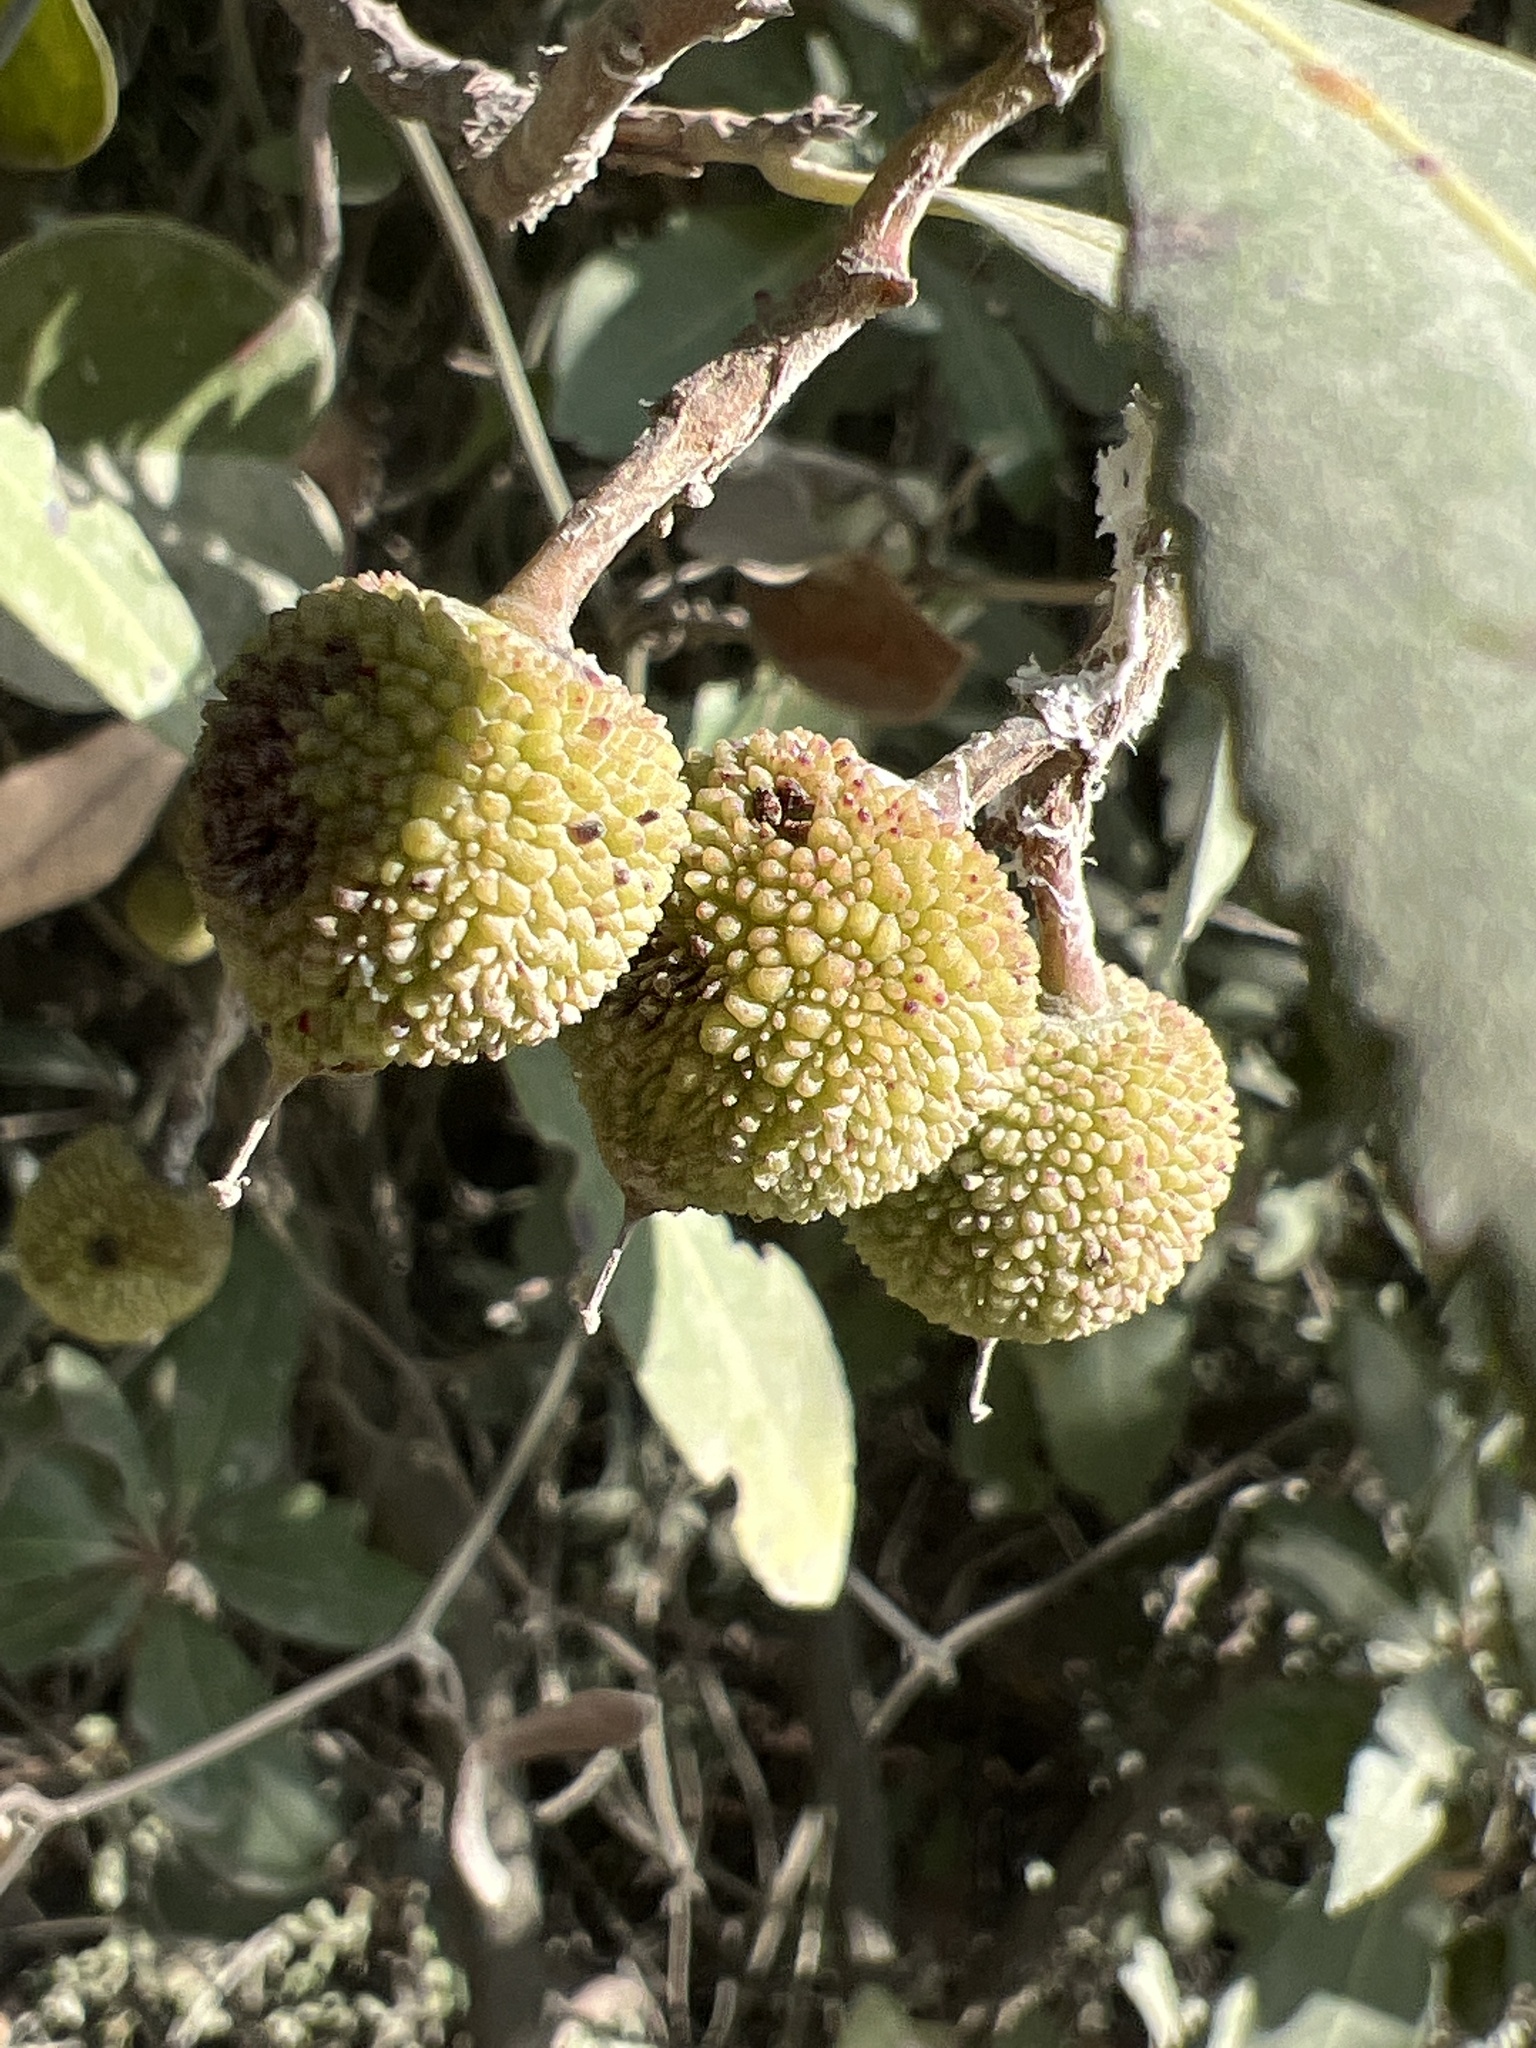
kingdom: Plantae
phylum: Tracheophyta
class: Magnoliopsida
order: Ericales
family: Ericaceae
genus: Arbutus
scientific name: Arbutus unedo
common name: Strawberry-tree
